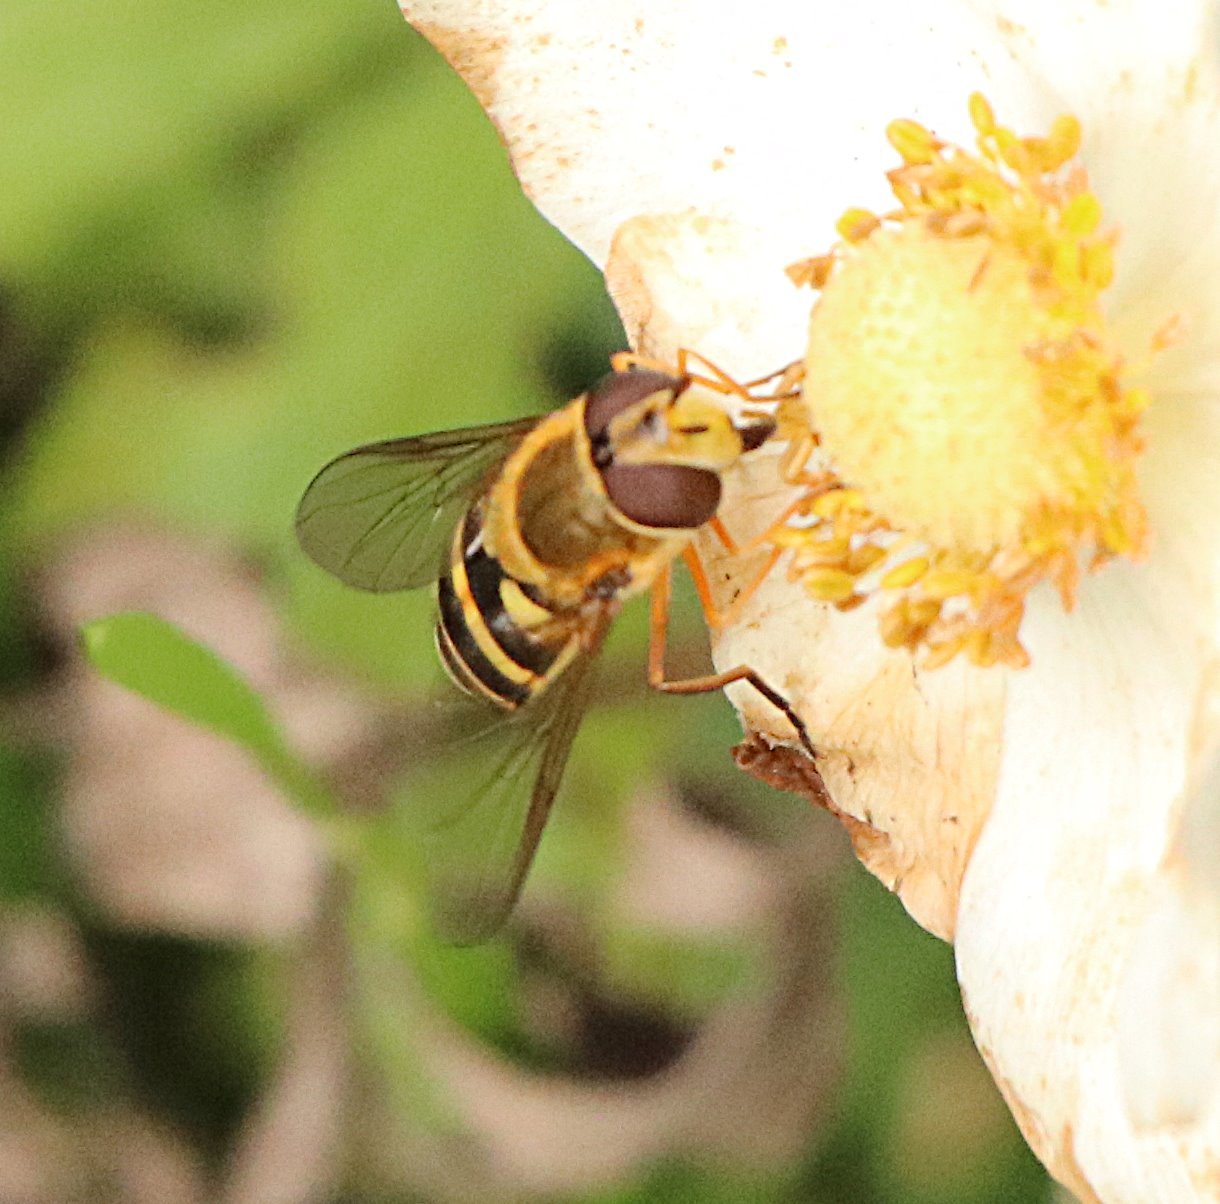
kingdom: Animalia
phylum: Arthropoda
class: Insecta
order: Diptera
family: Syrphidae
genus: Syrphus
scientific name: Syrphus ribesii
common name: Common flower fly
